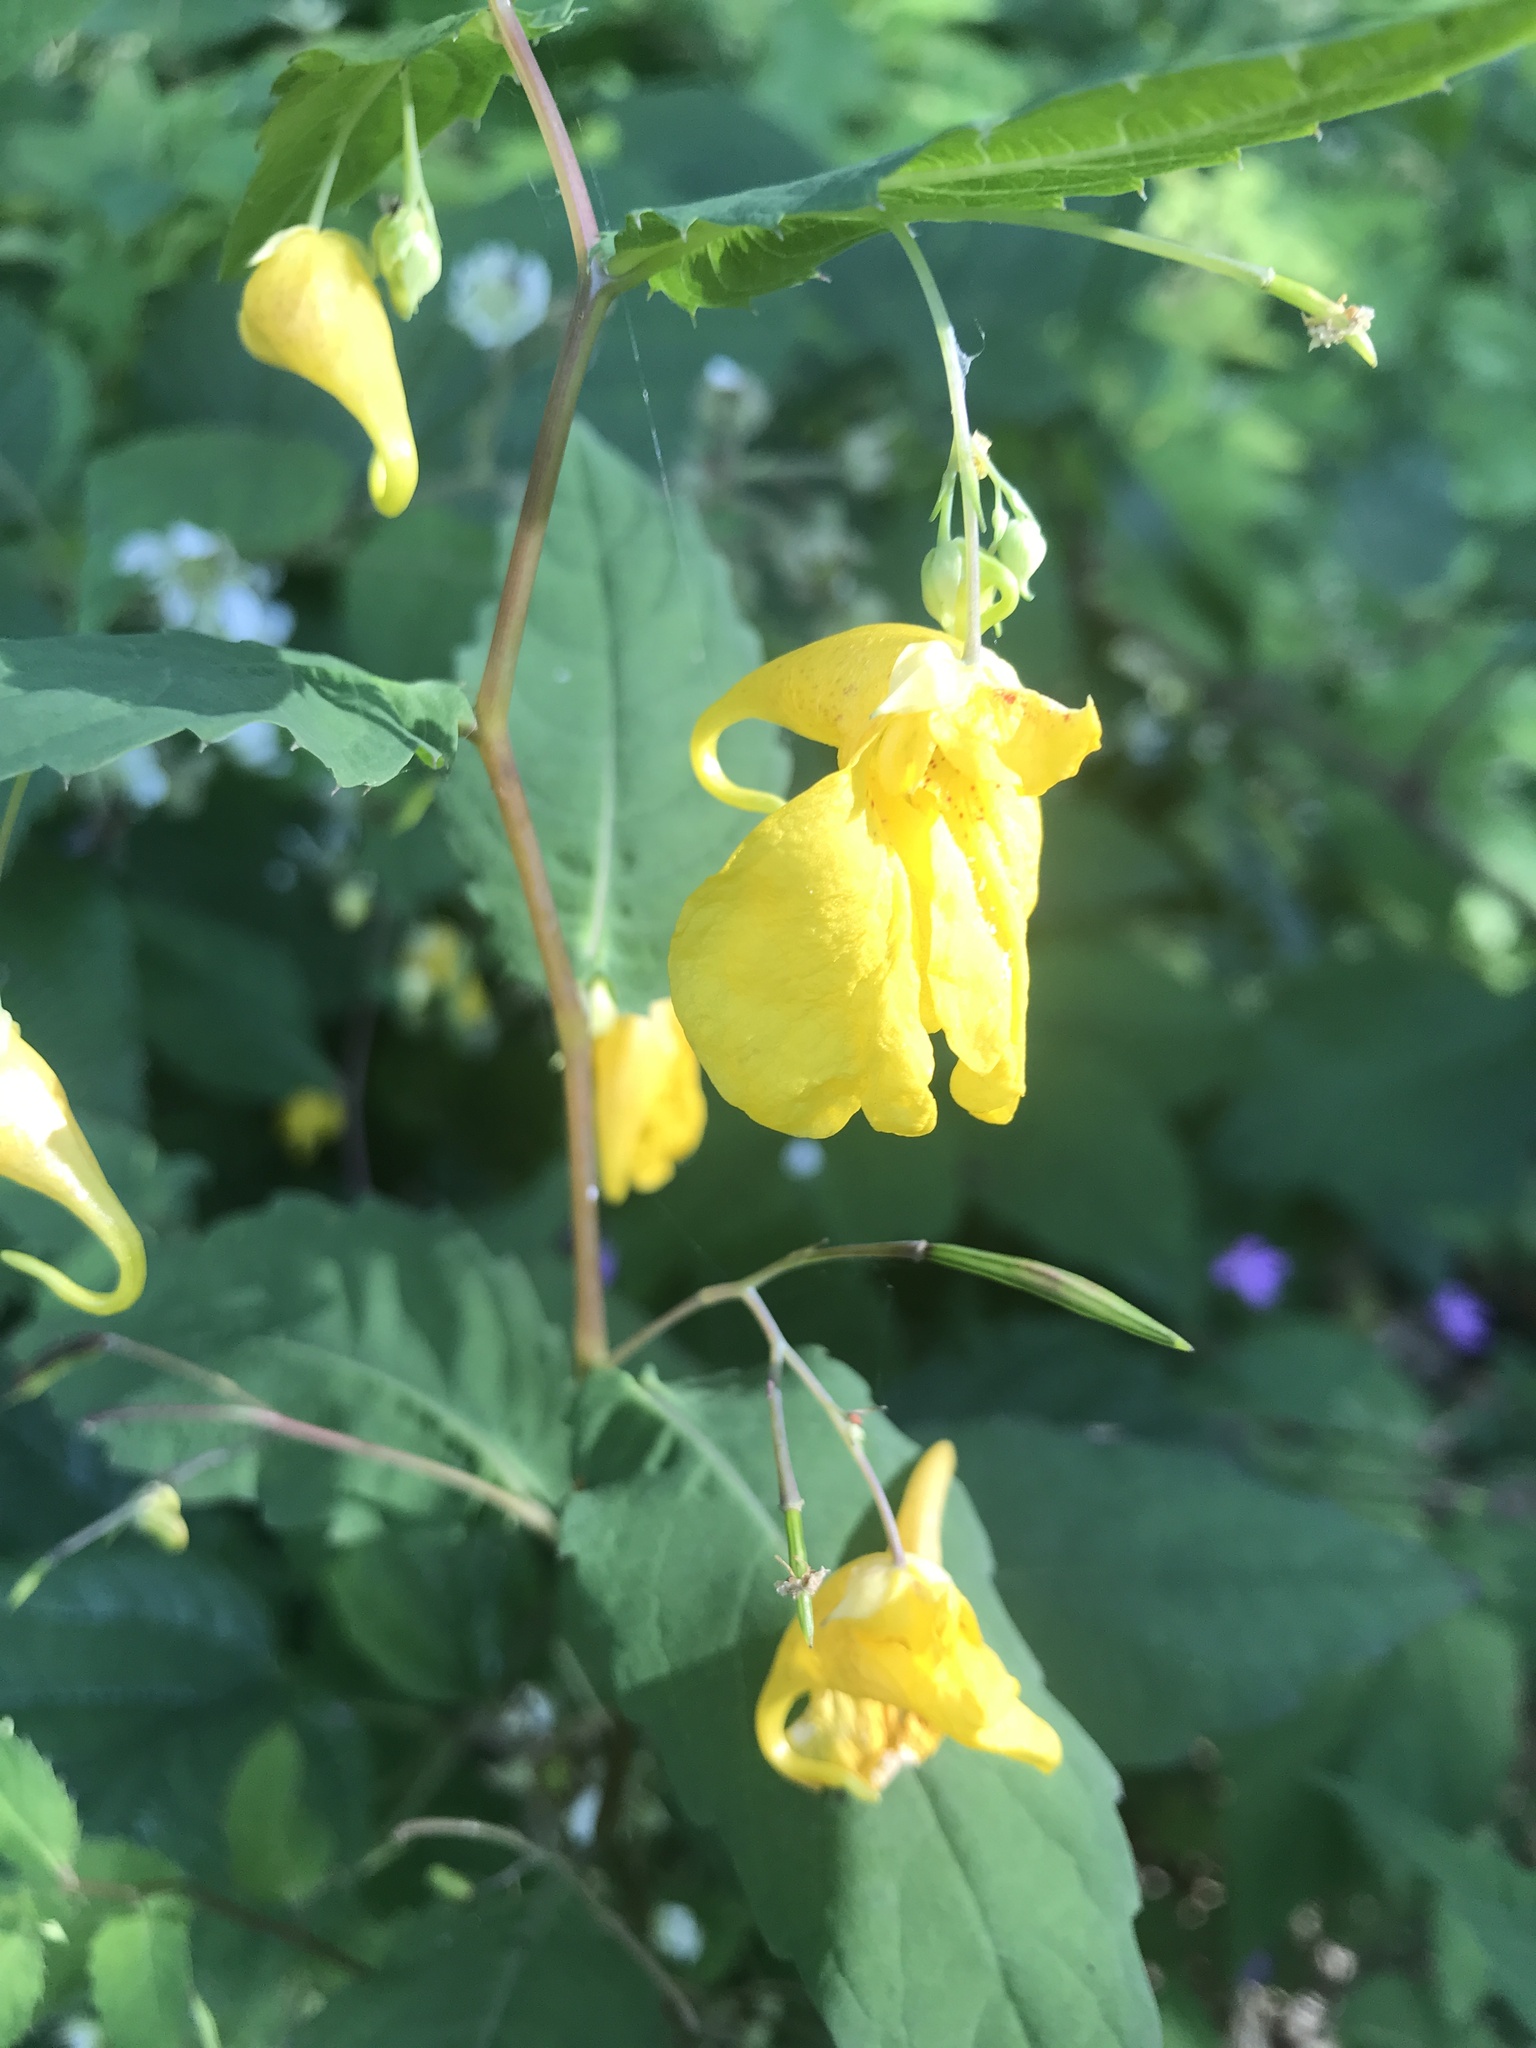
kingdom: Plantae
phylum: Tracheophyta
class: Magnoliopsida
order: Ericales
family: Balsaminaceae
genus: Impatiens
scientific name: Impatiens noli-tangere
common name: Touch-me-not balsam
